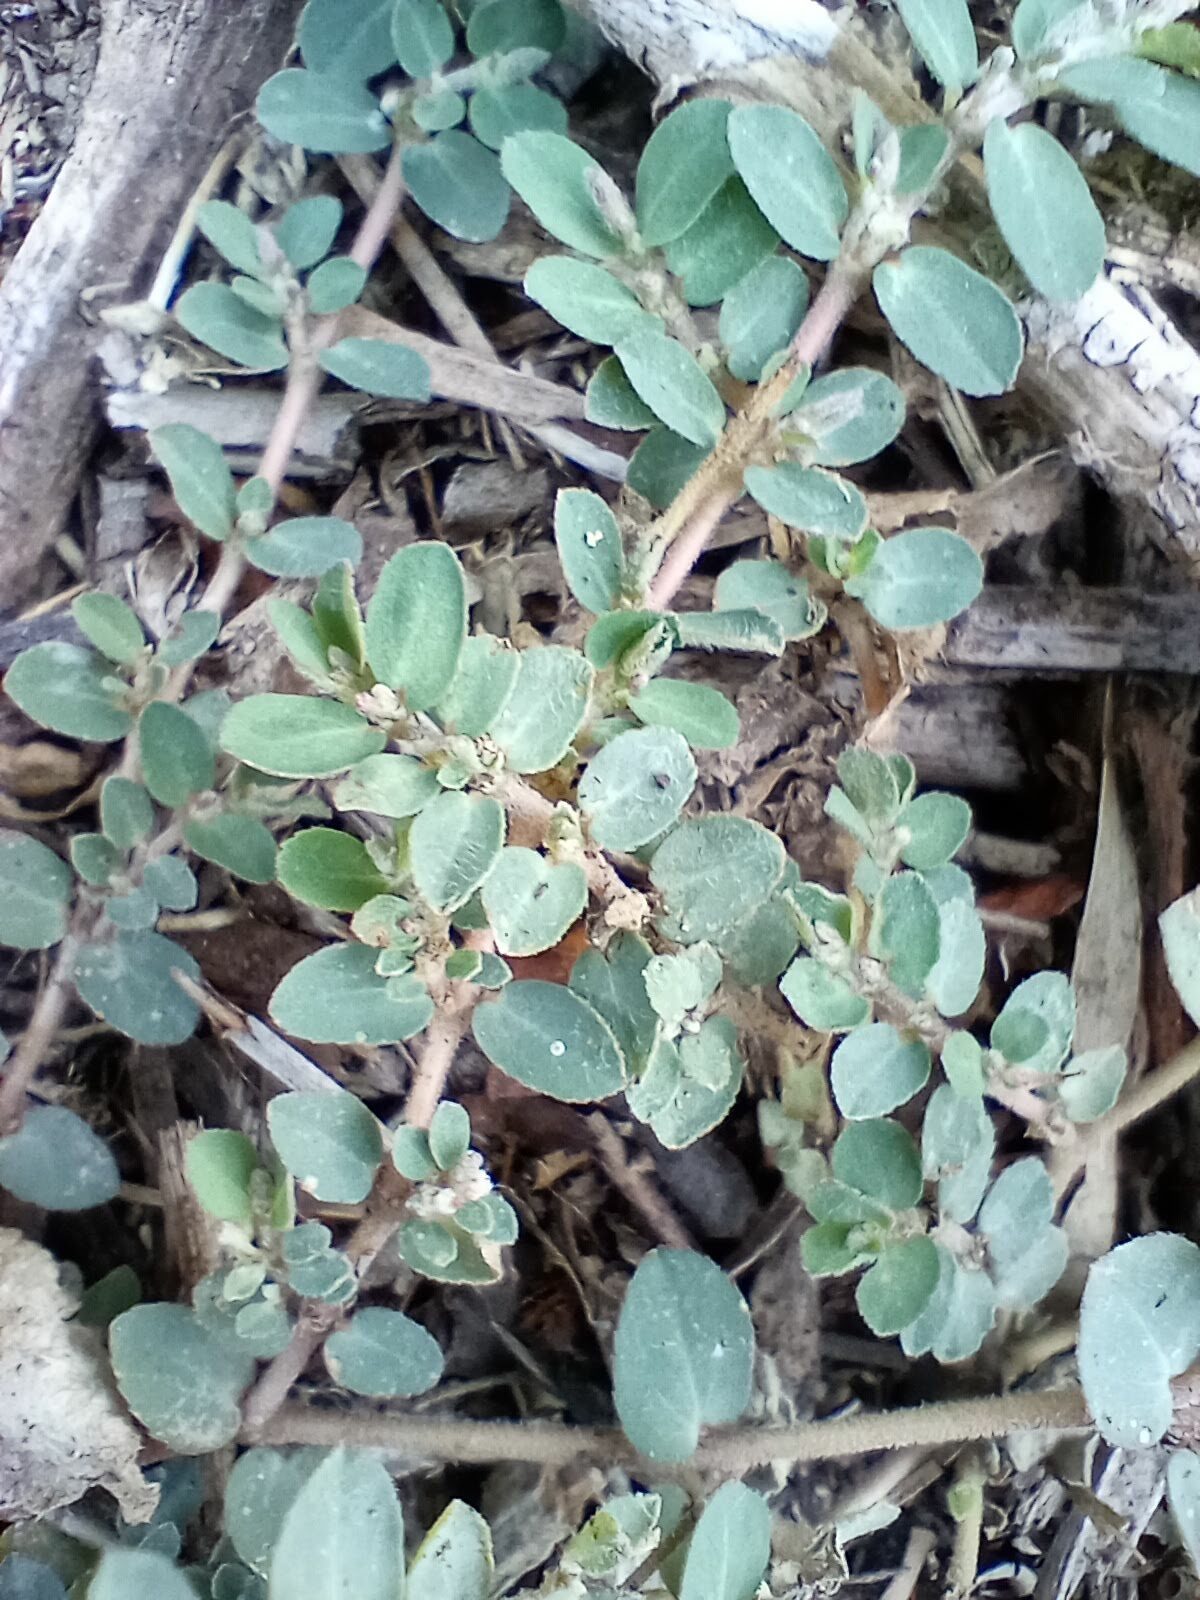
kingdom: Plantae
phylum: Tracheophyta
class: Magnoliopsida
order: Malpighiales
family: Euphorbiaceae
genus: Euphorbia
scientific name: Euphorbia prostrata
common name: Prostrate sandmat
